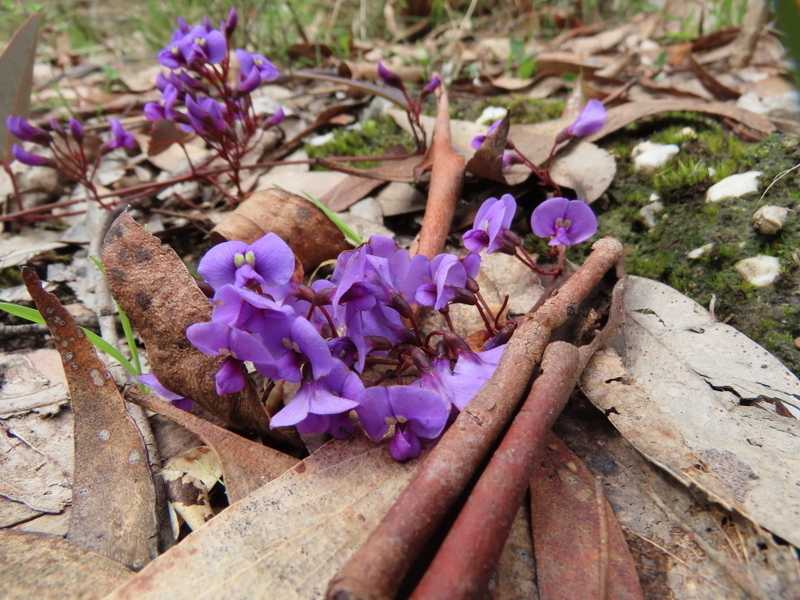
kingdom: Plantae
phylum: Tracheophyta
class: Magnoliopsida
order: Fabales
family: Fabaceae
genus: Hardenbergia
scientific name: Hardenbergia violacea
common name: Coral-pea
